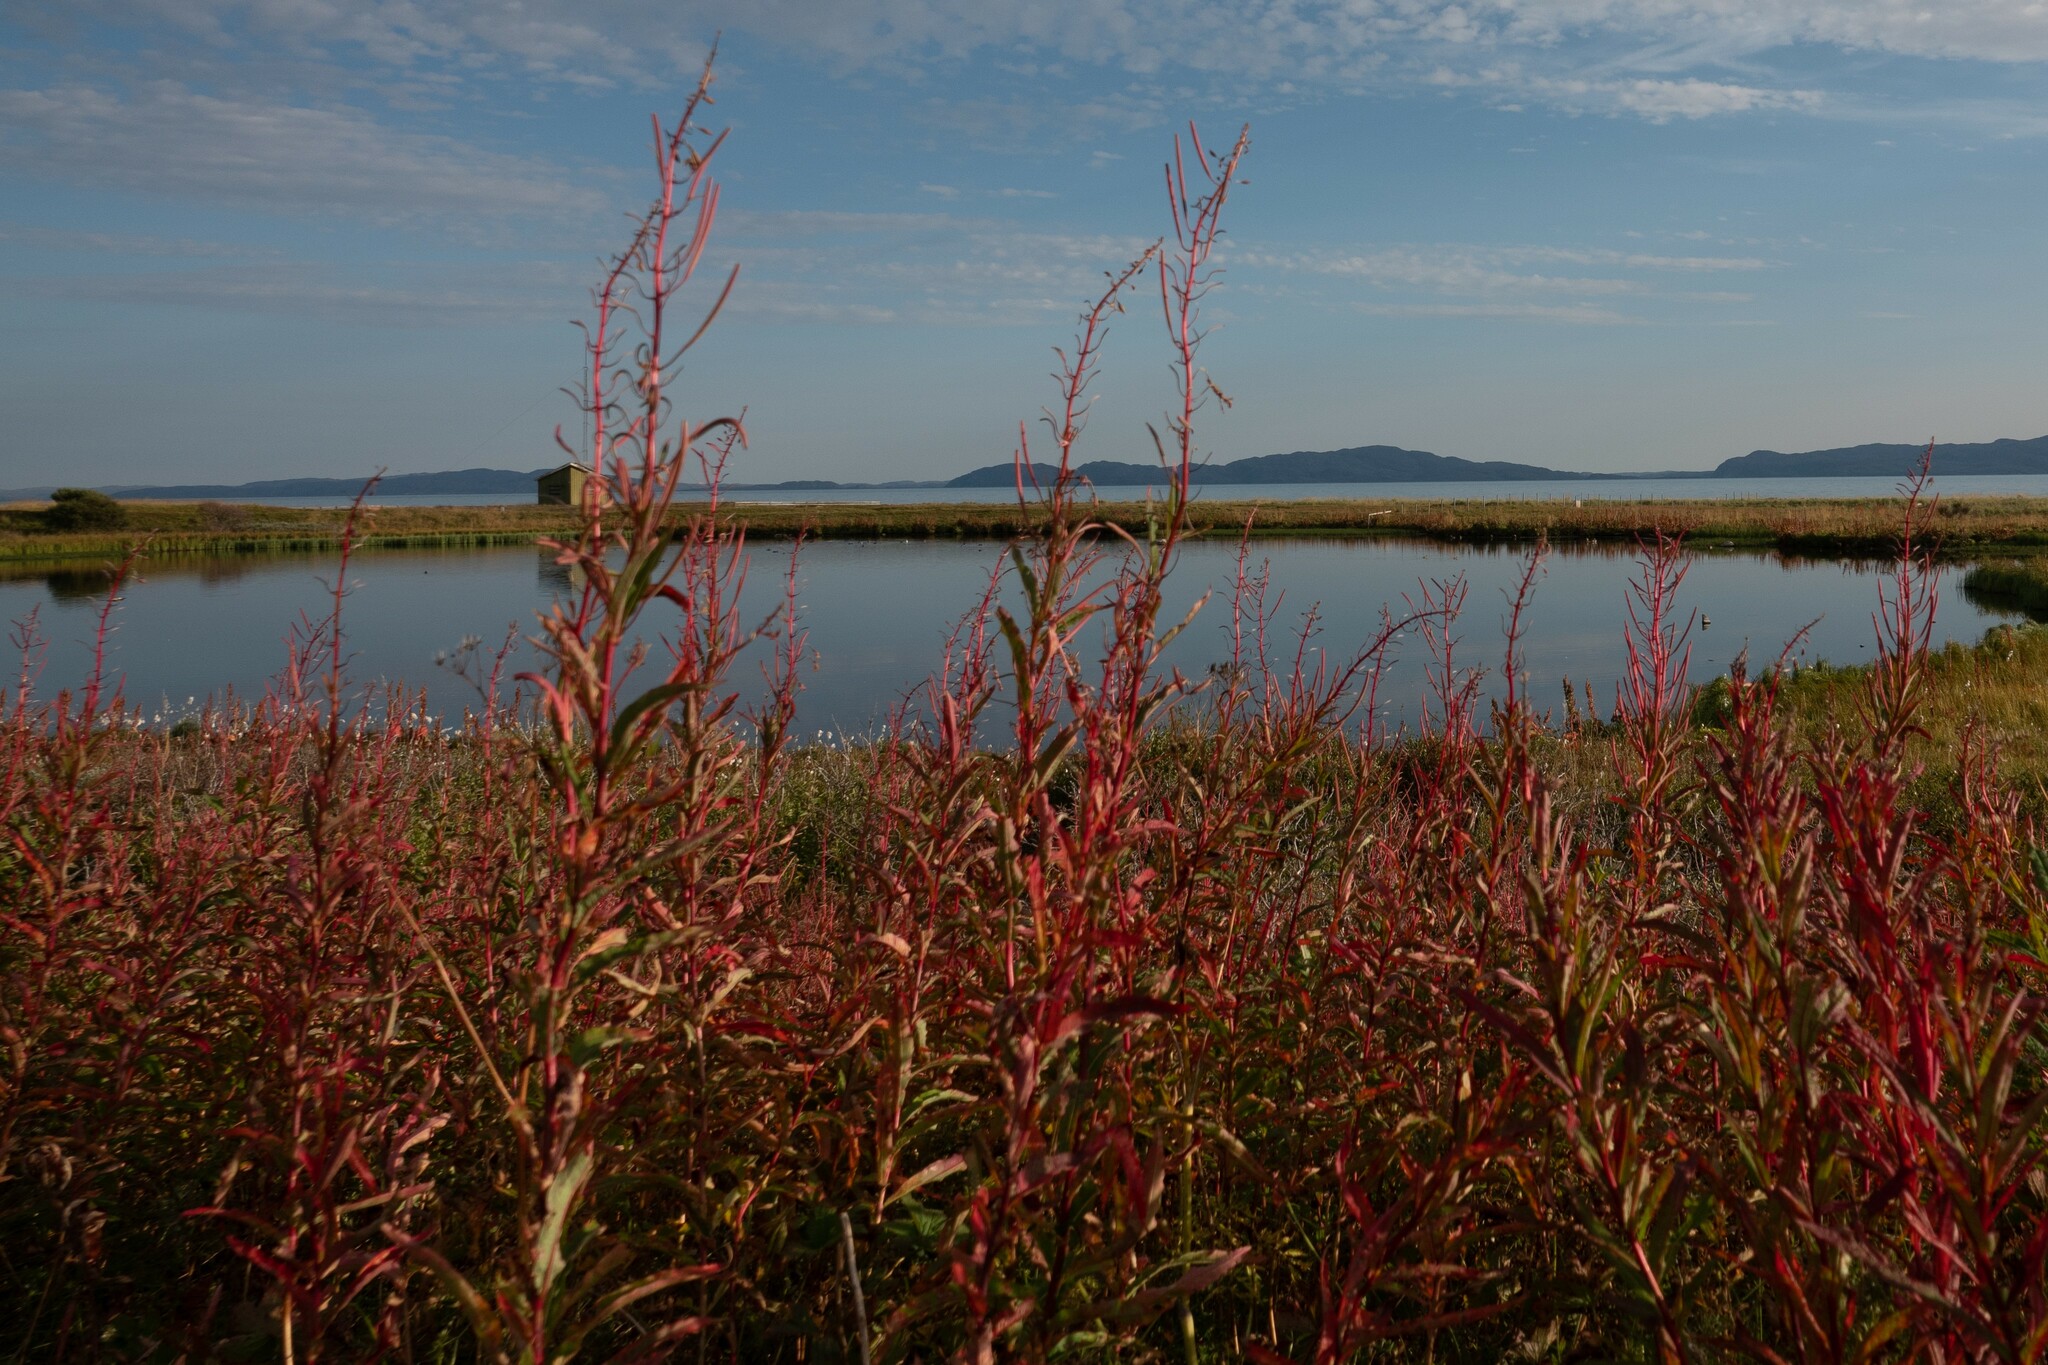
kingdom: Plantae
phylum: Tracheophyta
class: Magnoliopsida
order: Myrtales
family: Onagraceae
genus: Chamaenerion
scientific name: Chamaenerion angustifolium
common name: Fireweed
